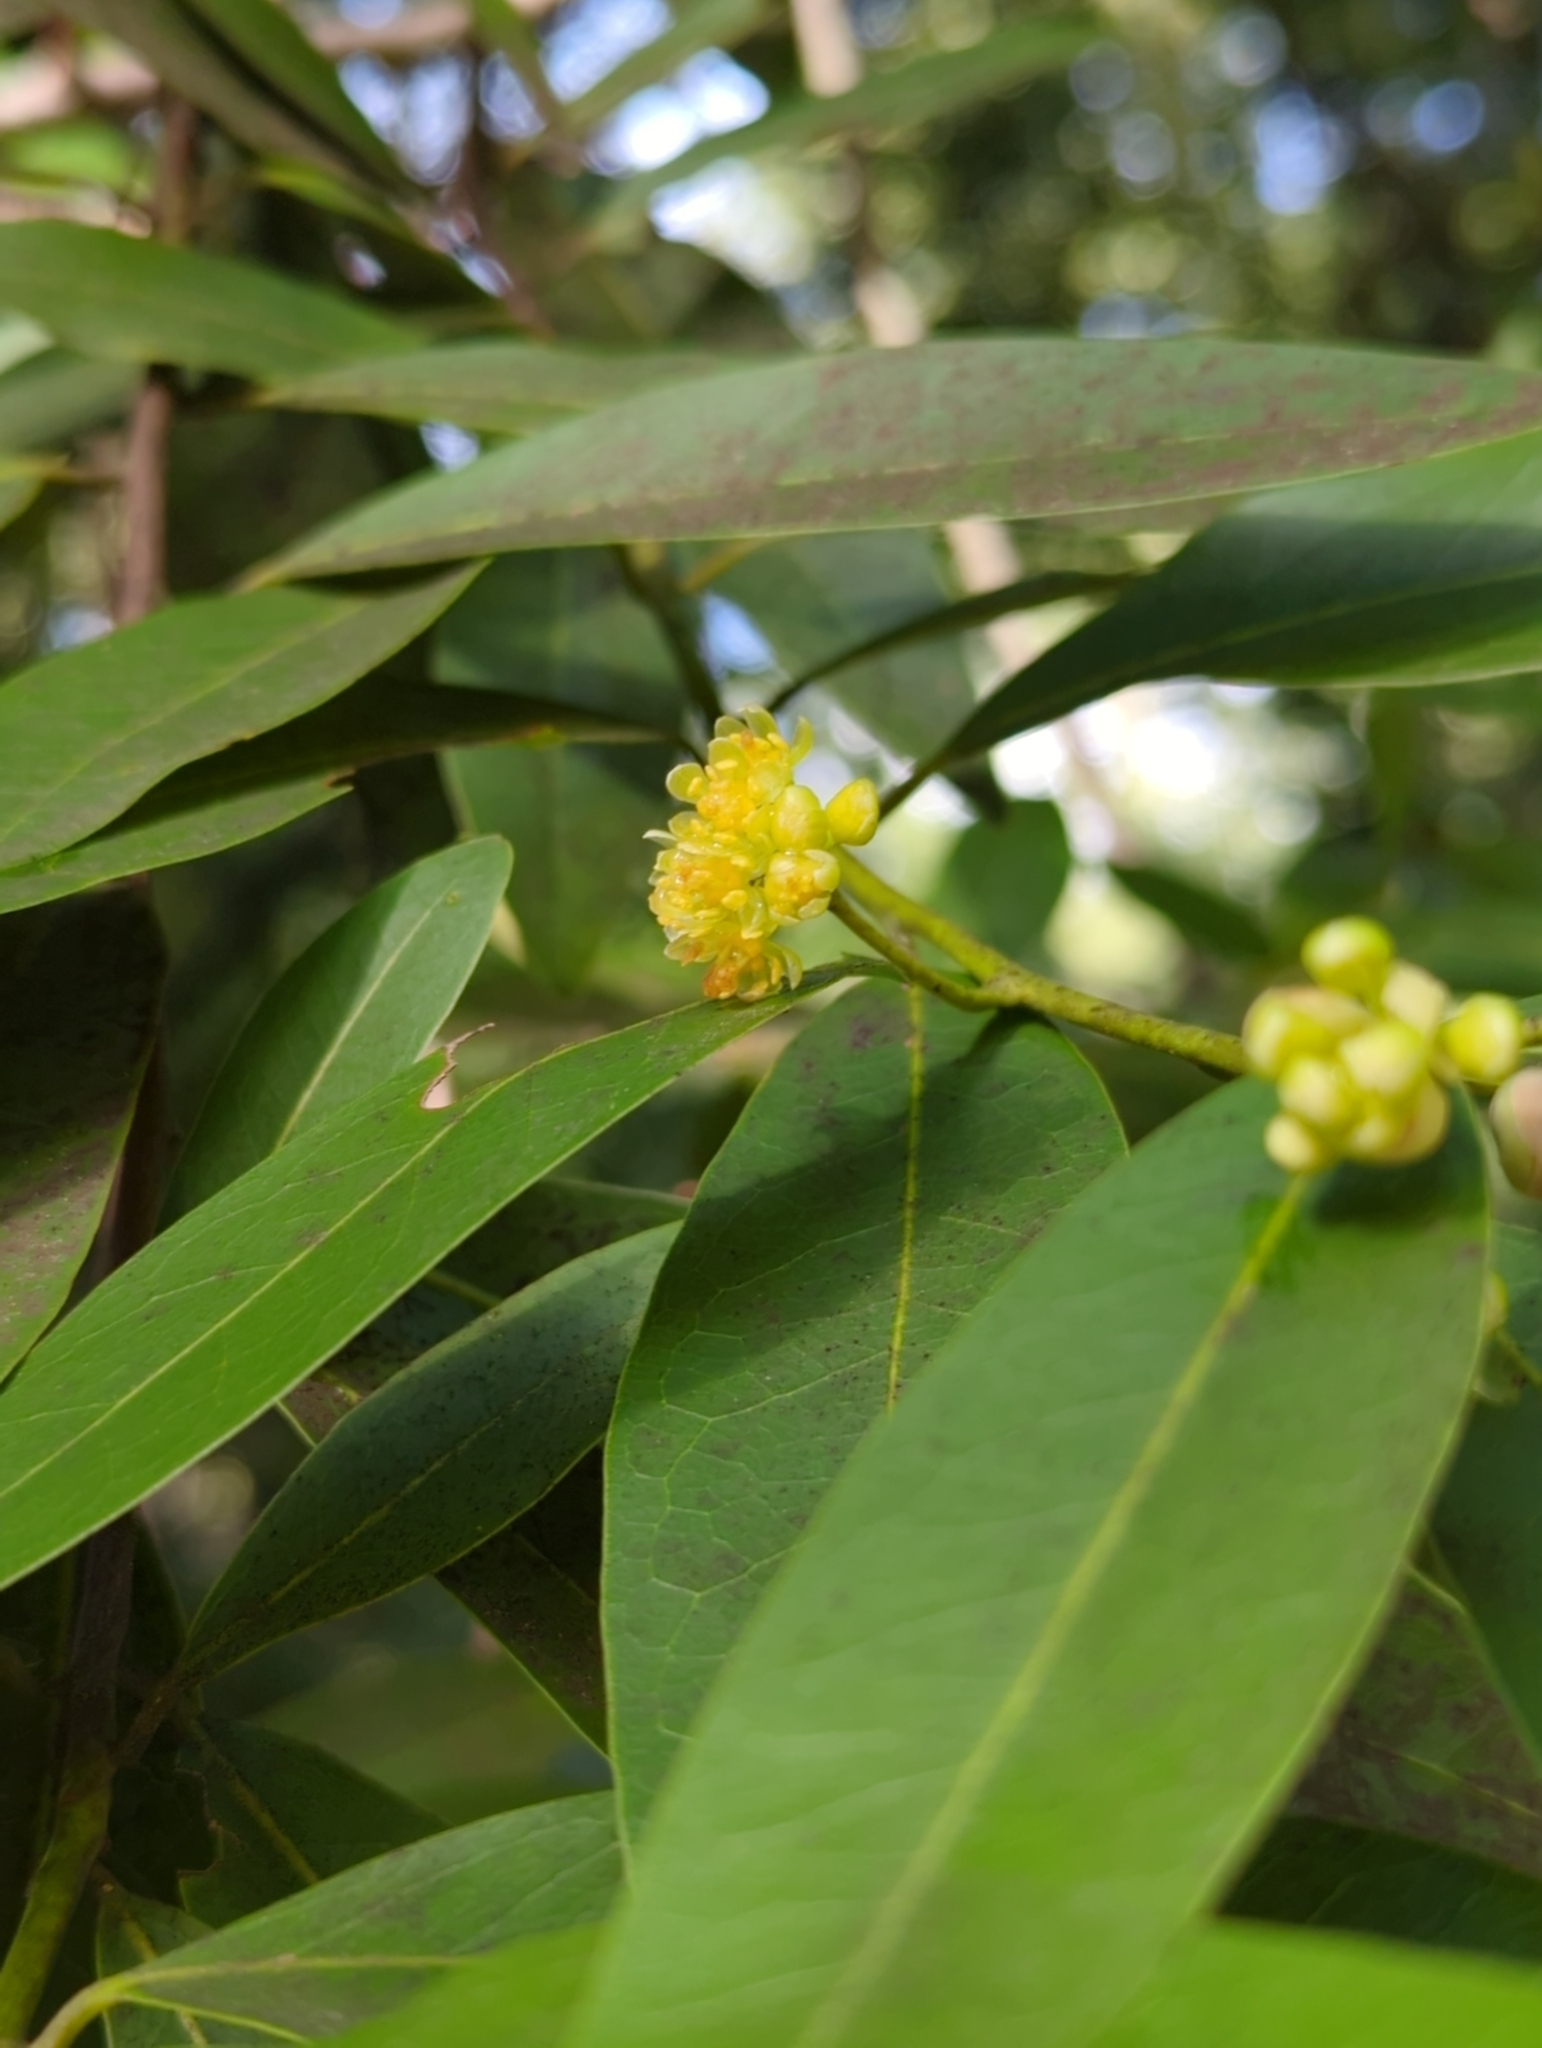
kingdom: Plantae
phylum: Tracheophyta
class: Magnoliopsida
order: Laurales
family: Lauraceae
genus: Umbellularia
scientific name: Umbellularia californica
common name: California bay
